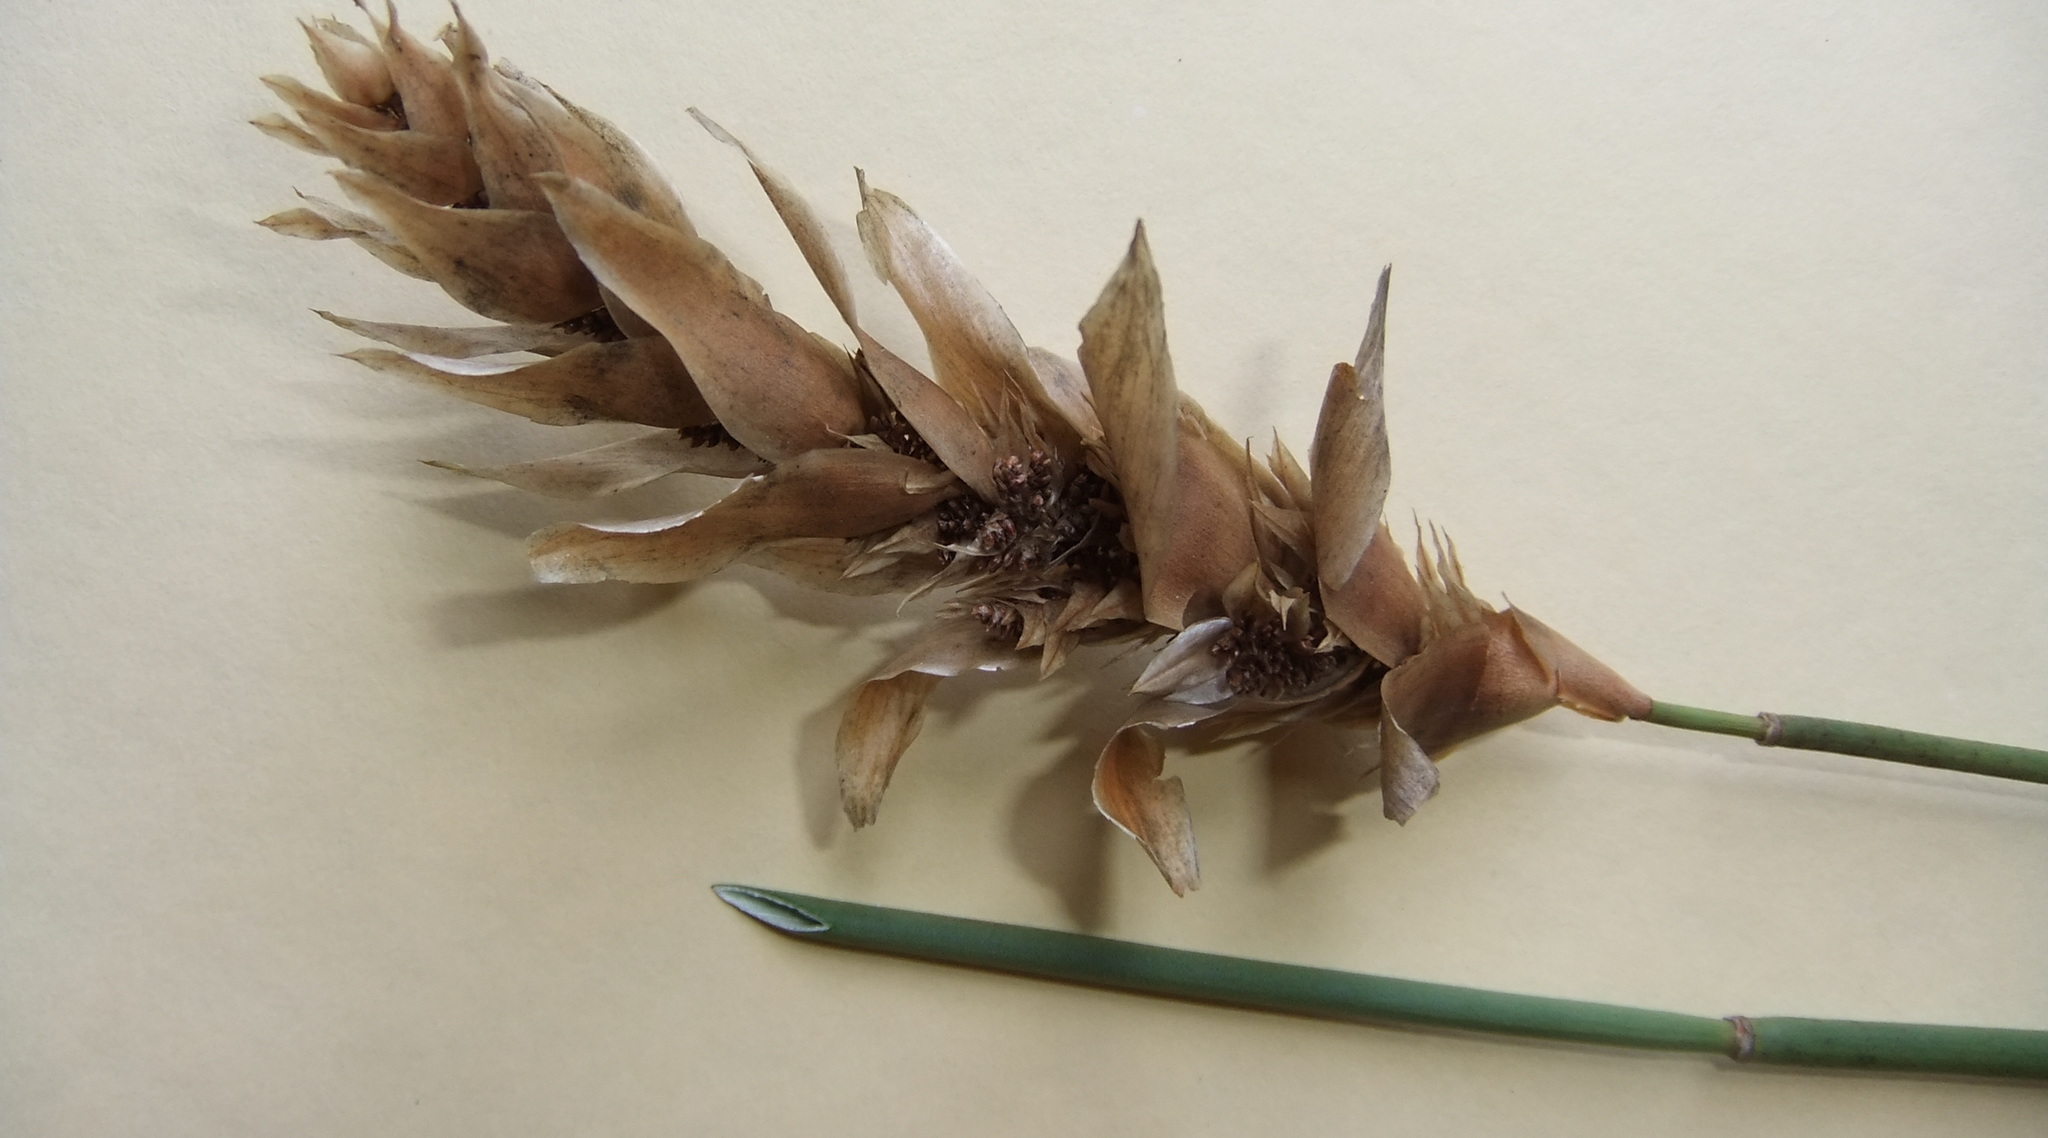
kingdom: Plantae
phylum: Tracheophyta
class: Liliopsida
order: Poales
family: Restionaceae
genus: Elegia
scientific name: Elegia fistulosa
